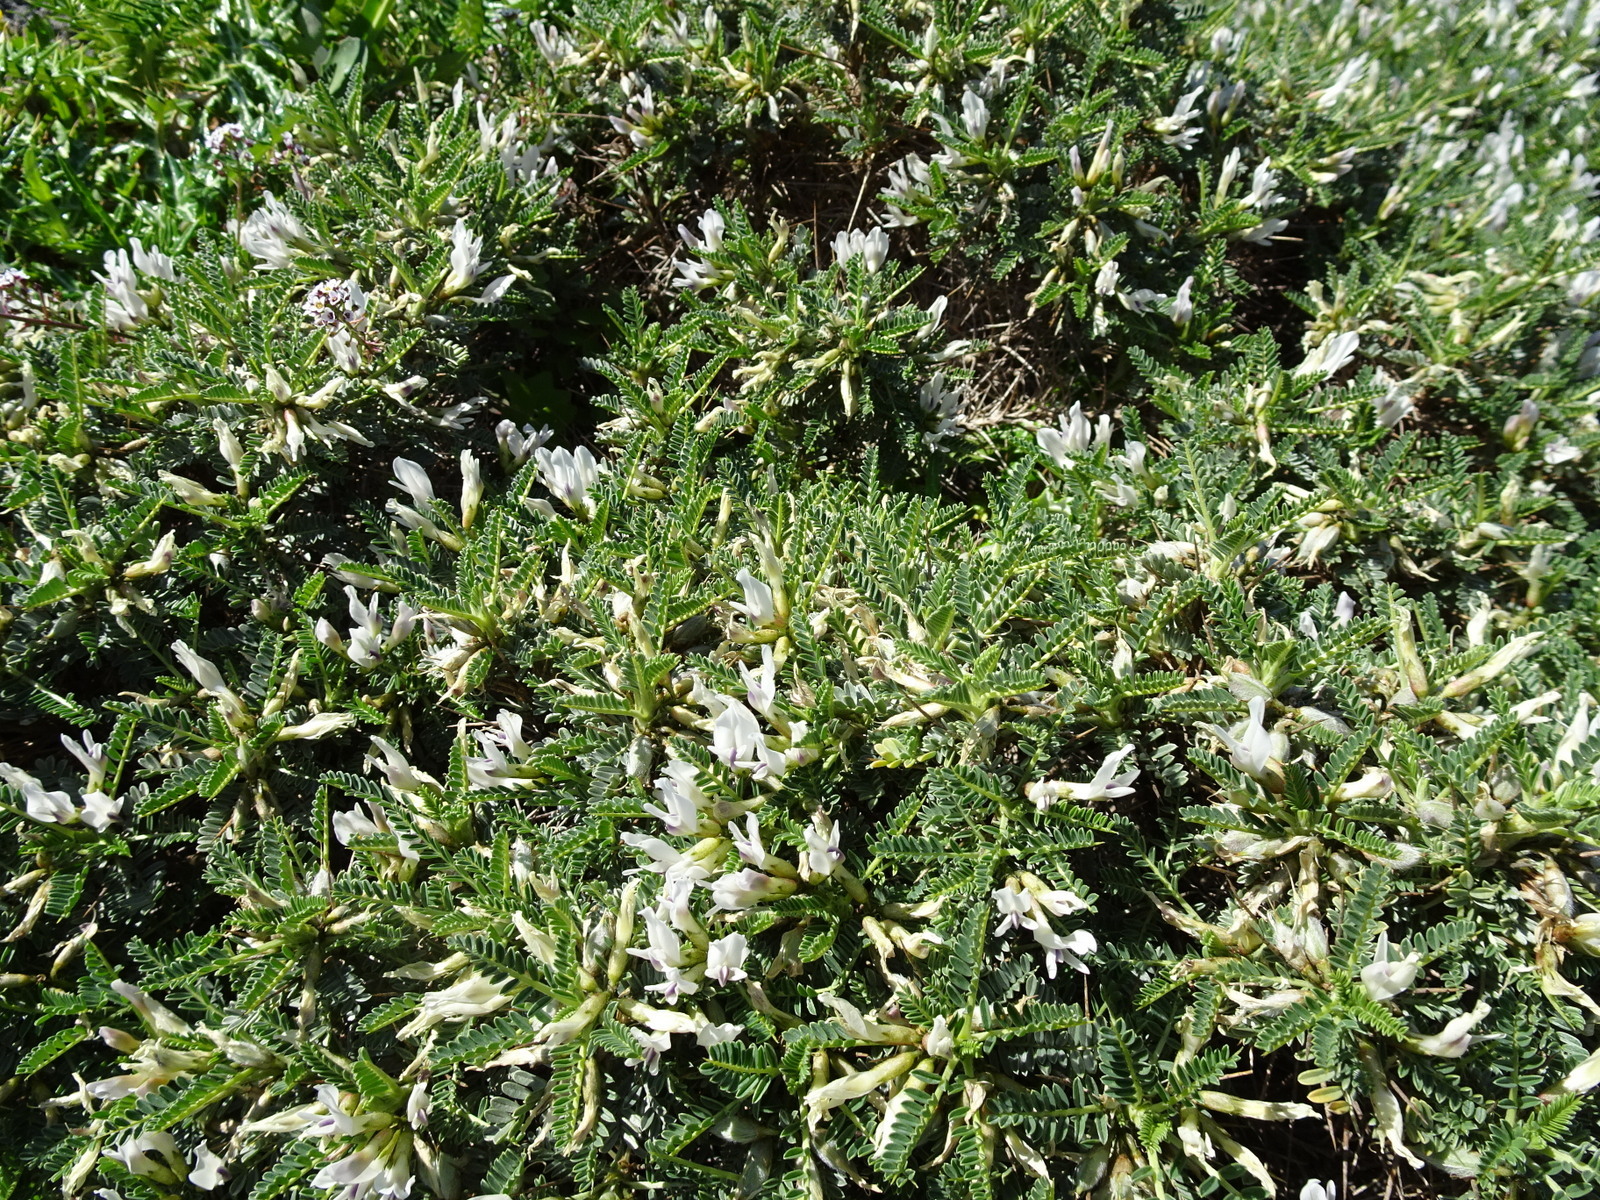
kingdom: Plantae
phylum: Tracheophyta
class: Magnoliopsida
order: Fabales
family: Fabaceae
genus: Astragalus
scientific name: Astragalus tragacantha
